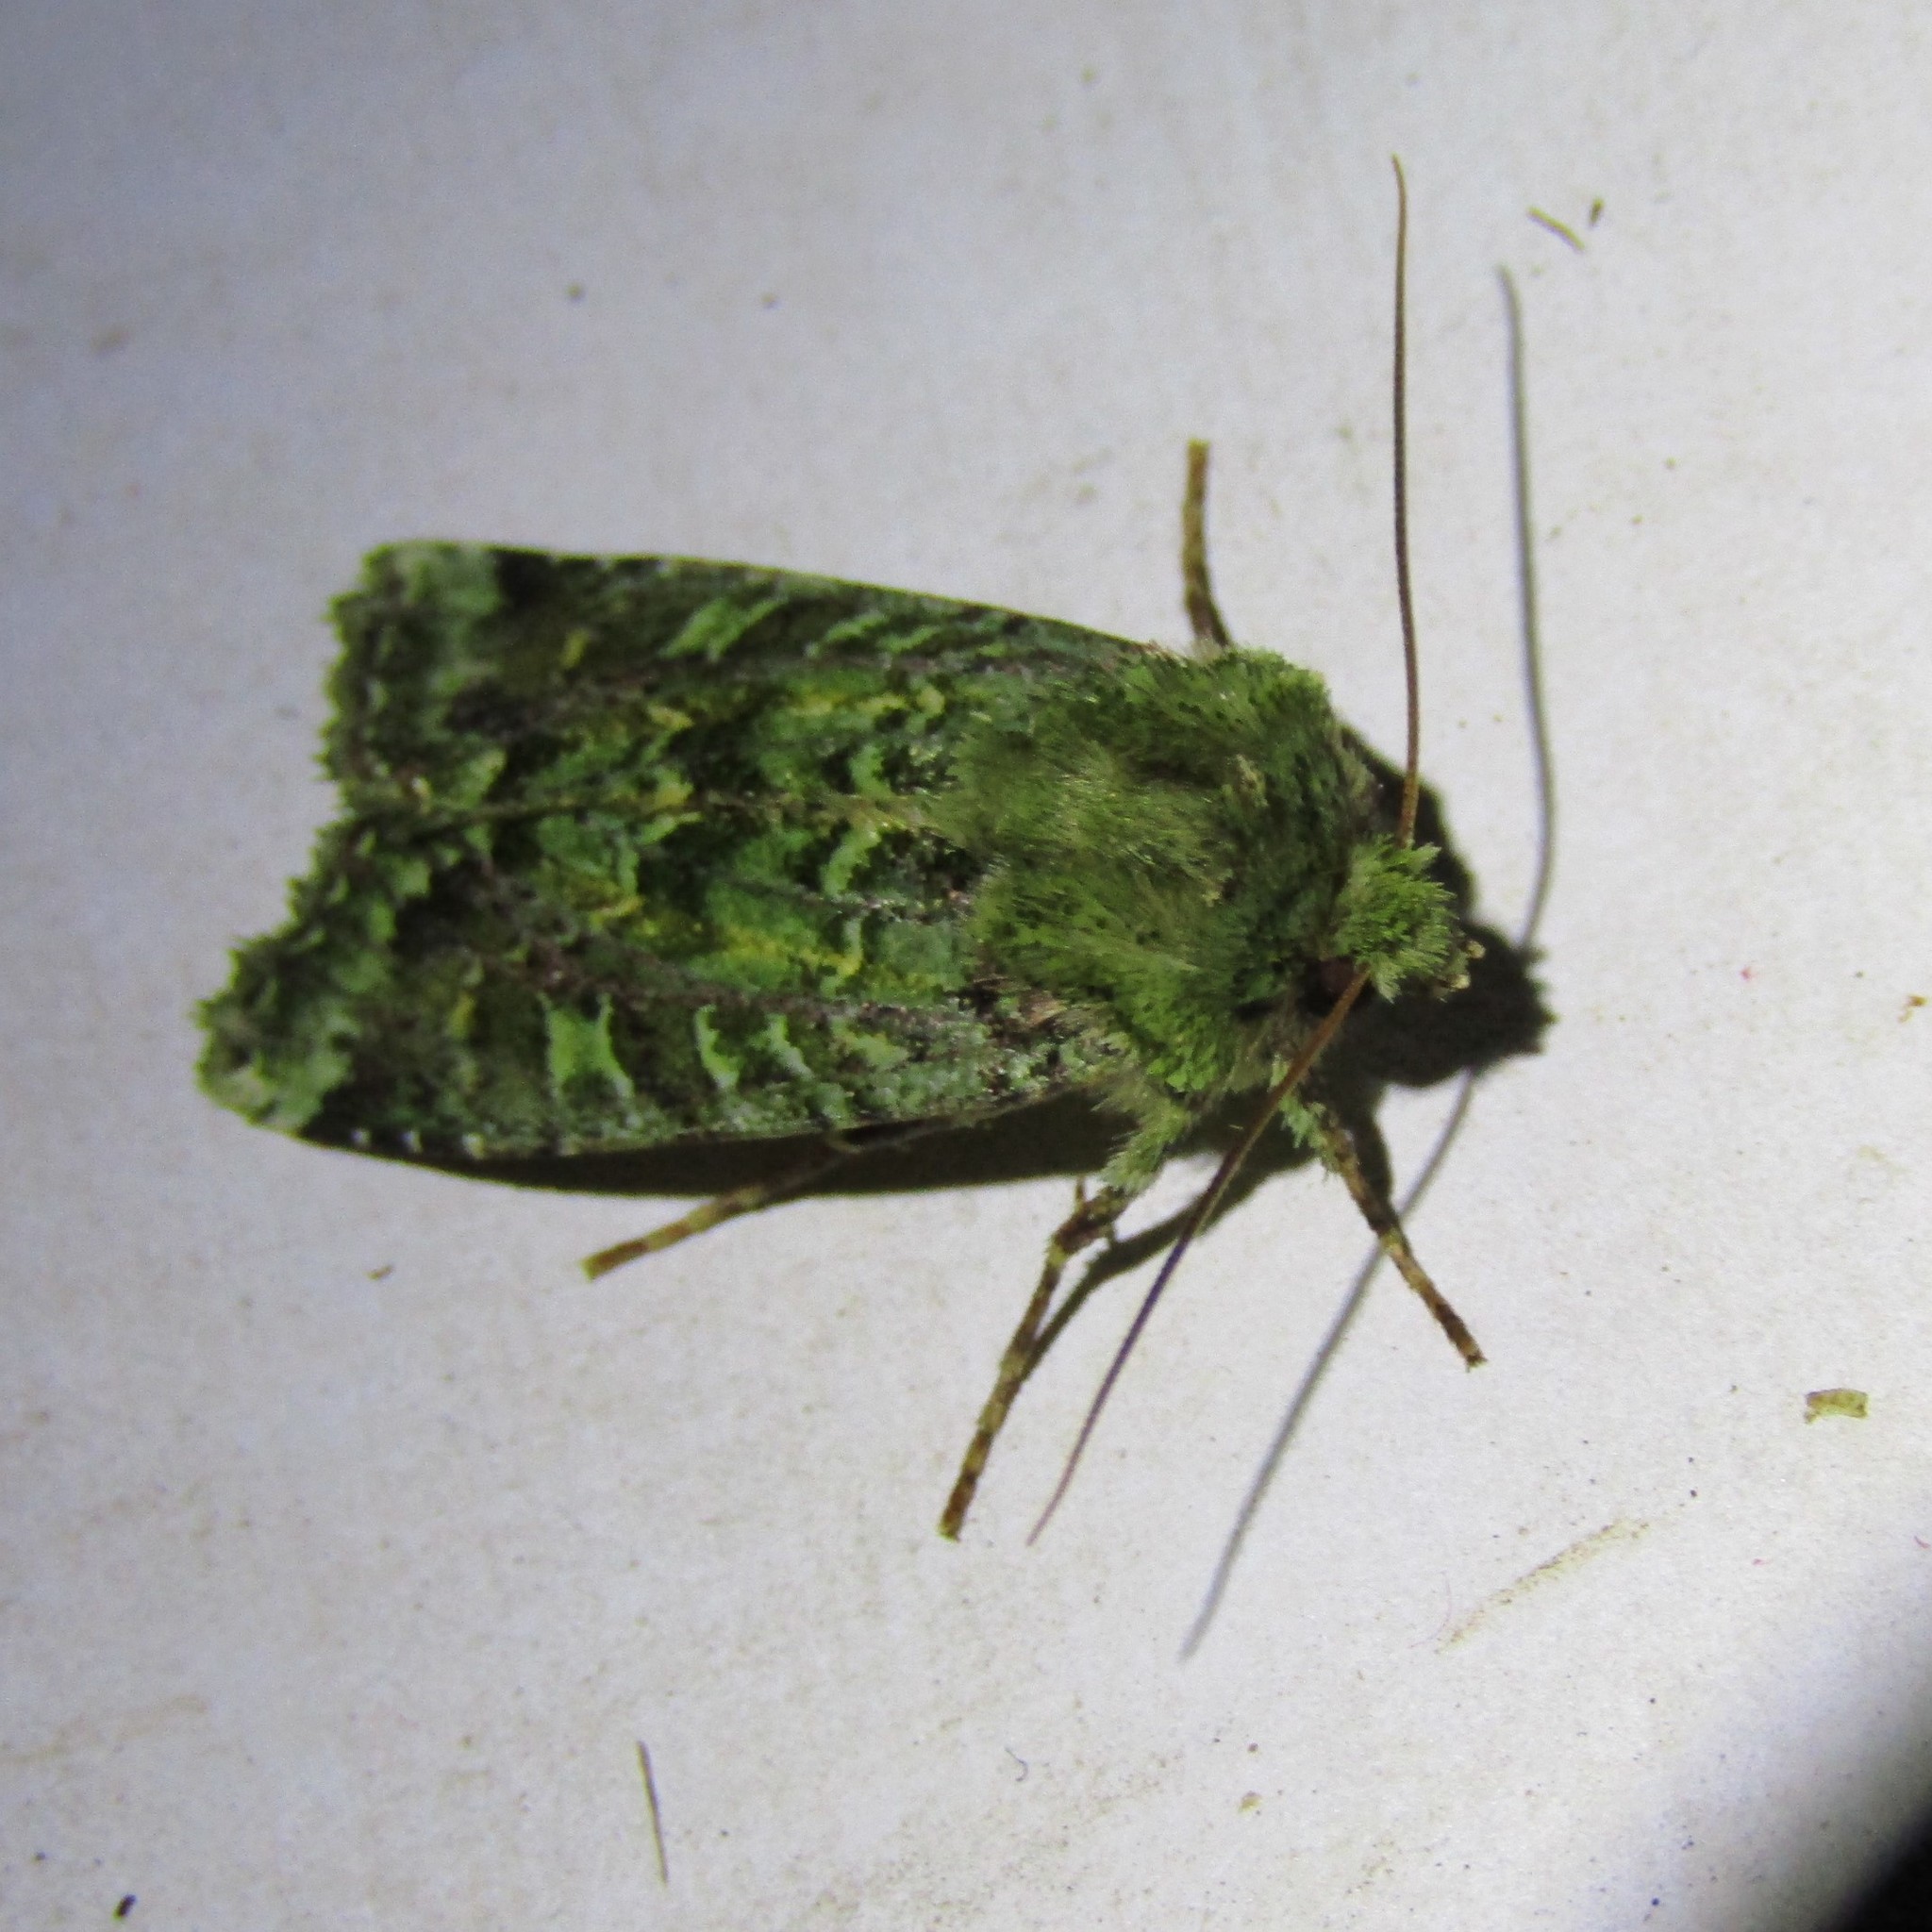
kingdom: Animalia
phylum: Arthropoda
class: Insecta
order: Lepidoptera
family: Noctuidae
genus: Feredayia
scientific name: Feredayia grammosa
